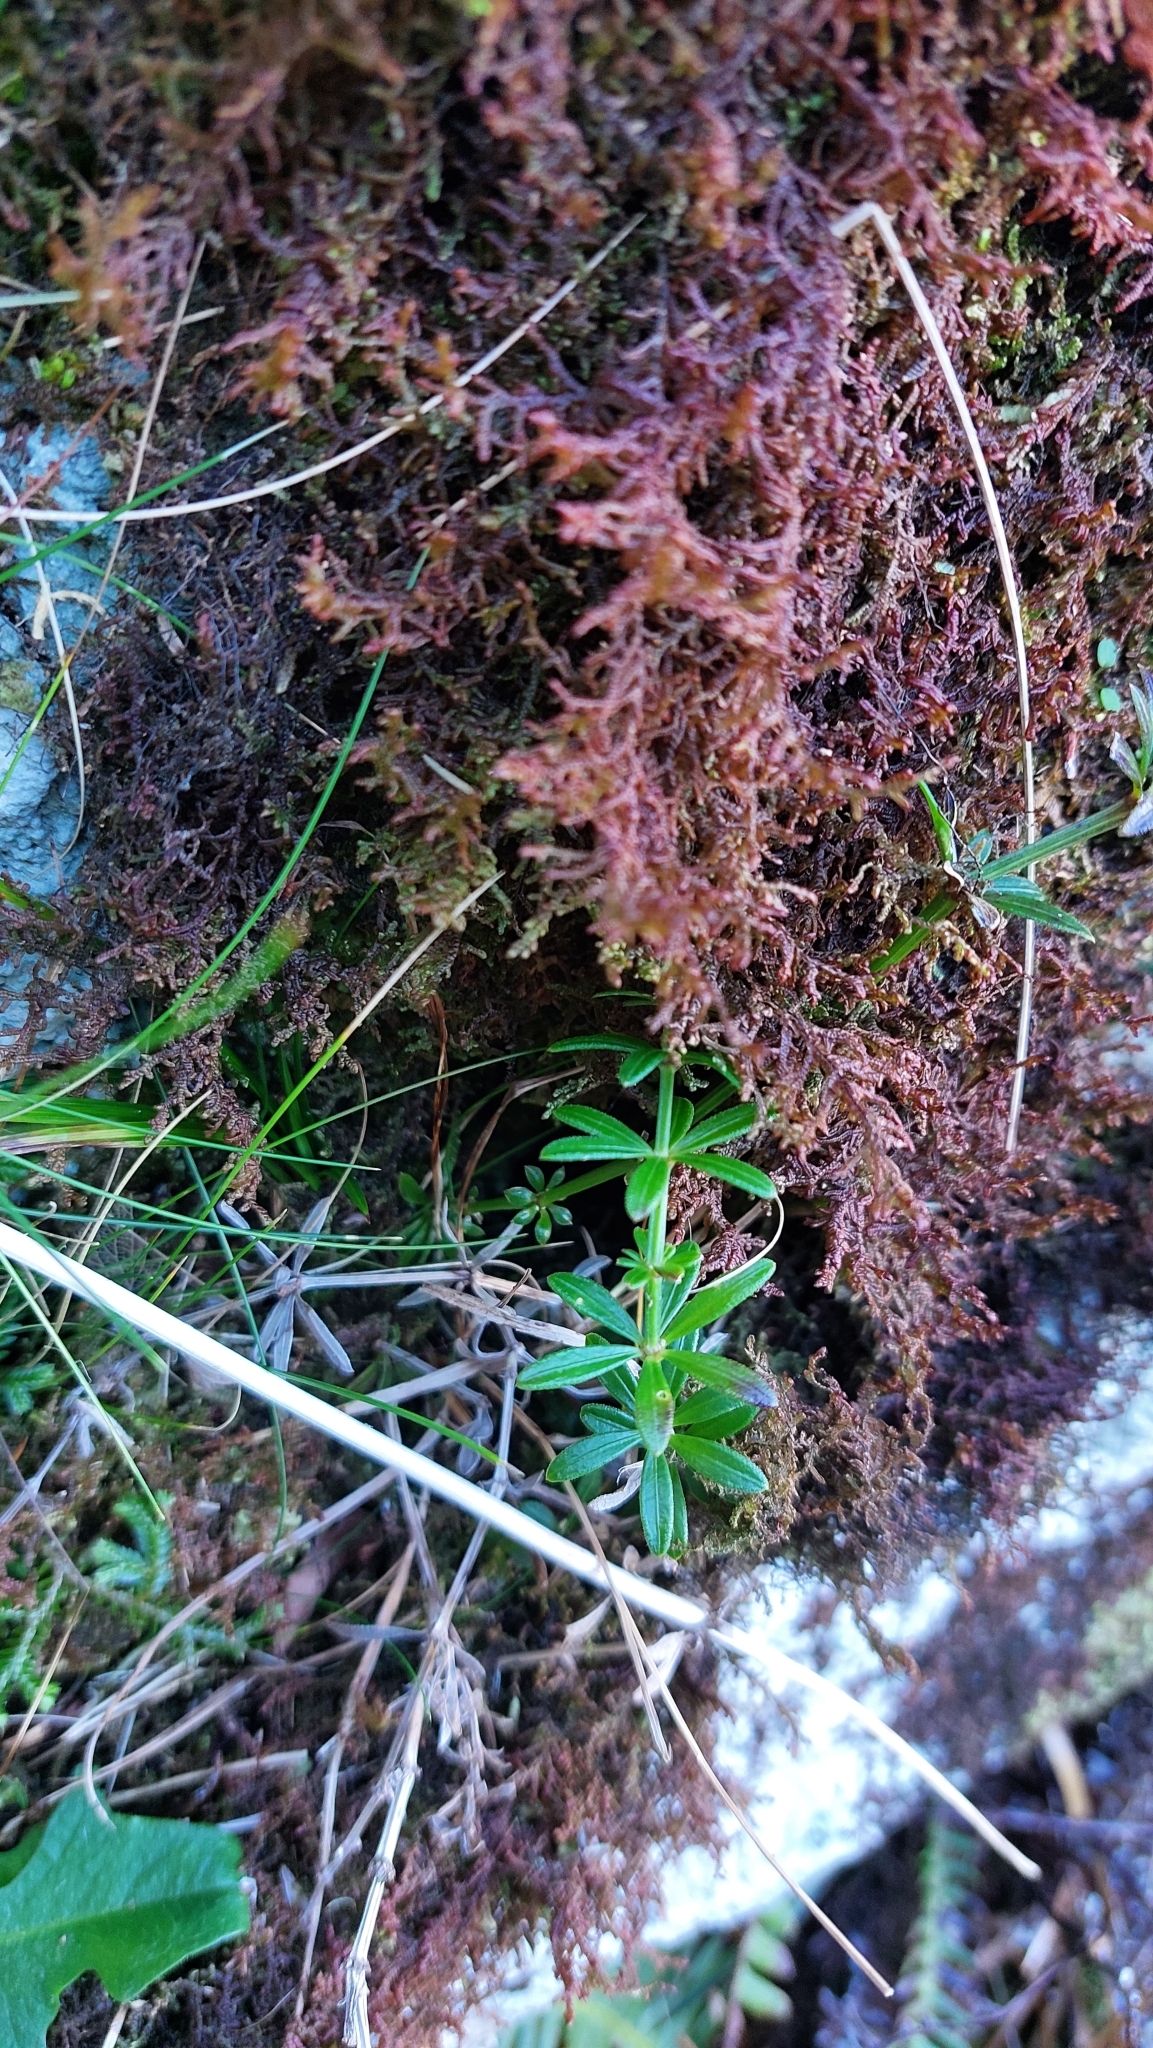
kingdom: Plantae
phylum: Tracheophyta
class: Magnoliopsida
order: Gentianales
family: Rubiaceae
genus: Rubia
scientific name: Rubia agostinhoi
